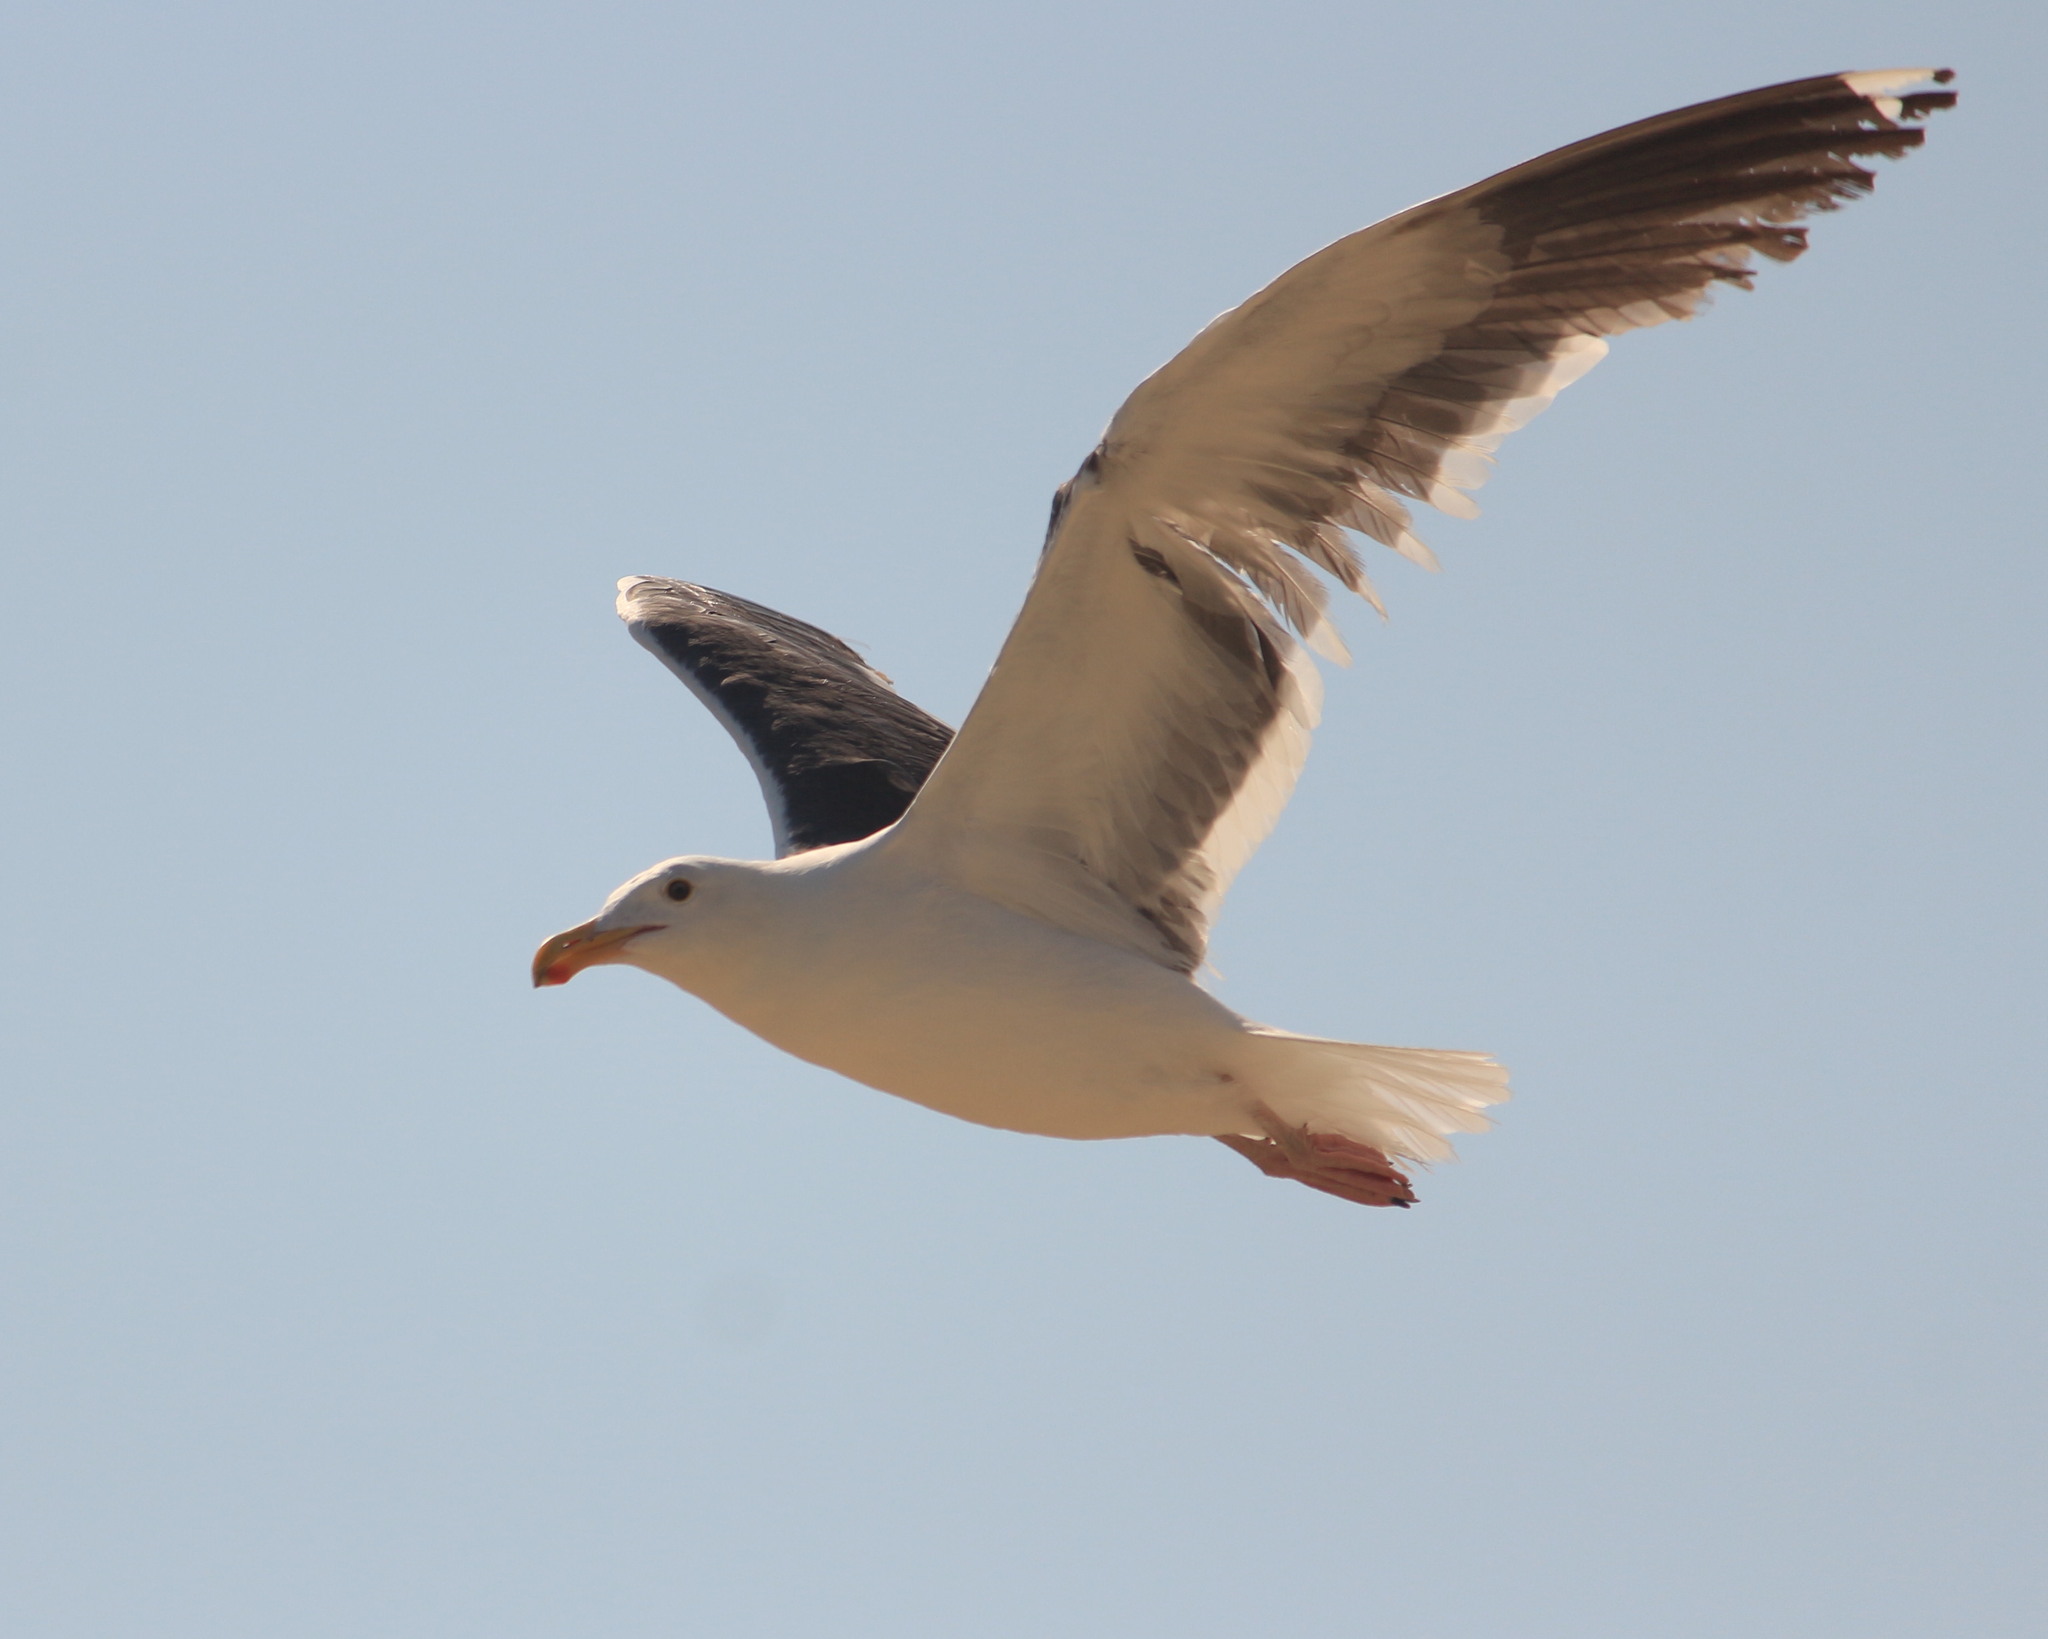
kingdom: Animalia
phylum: Chordata
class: Aves
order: Charadriiformes
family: Laridae
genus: Larus
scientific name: Larus occidentalis
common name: Western gull
